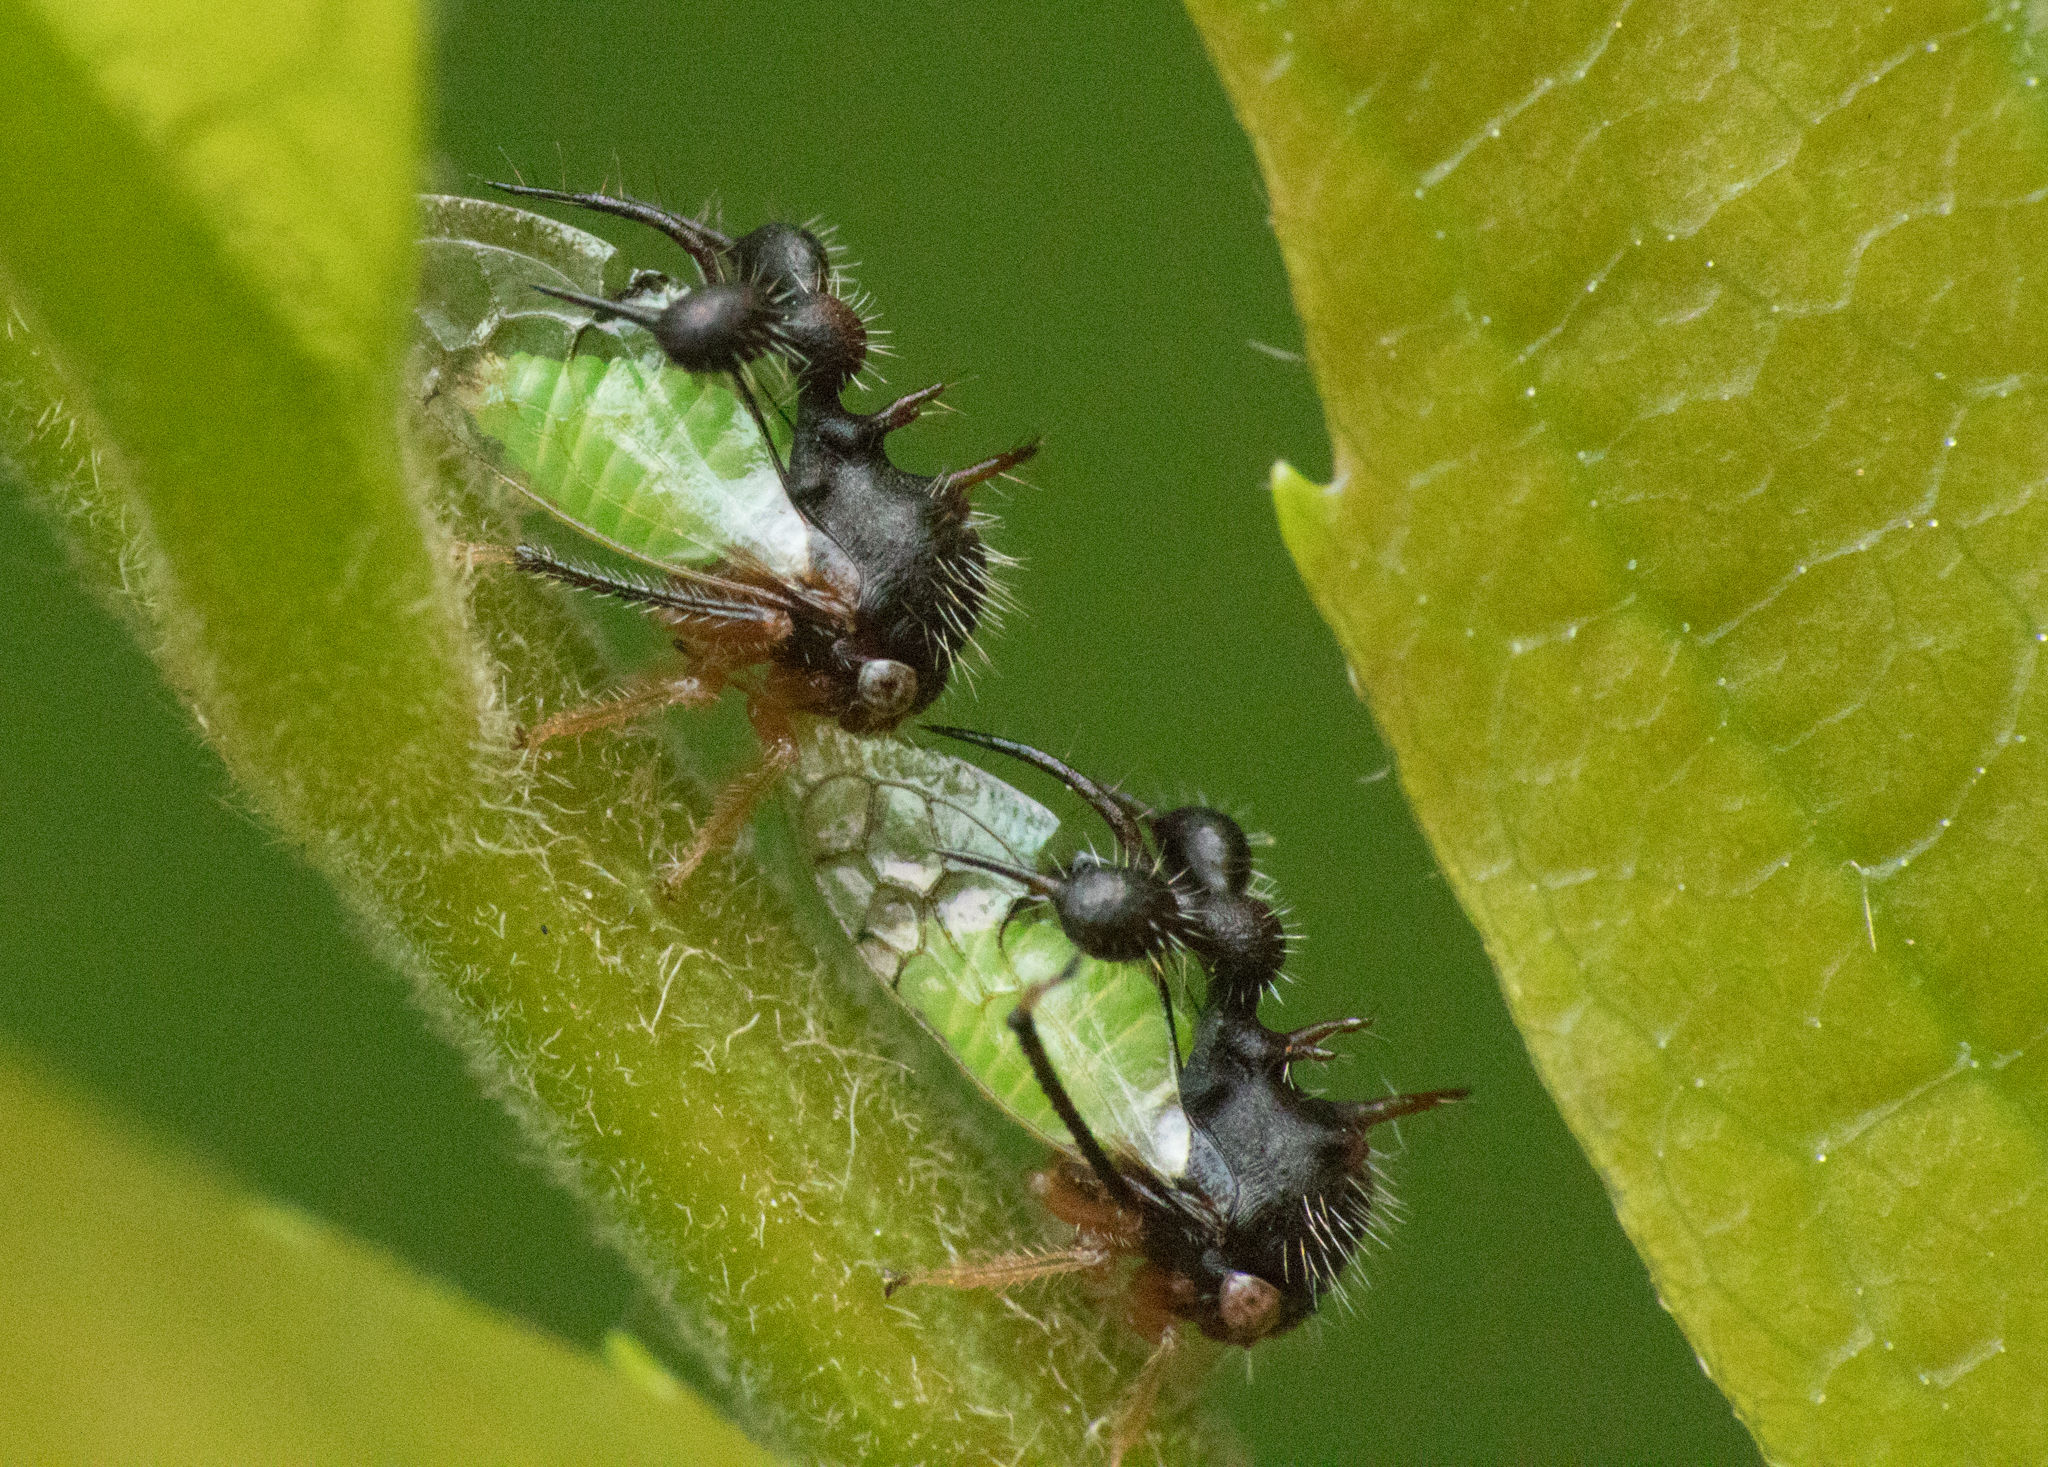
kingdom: Animalia
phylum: Arthropoda
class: Insecta
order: Hemiptera
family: Membracidae
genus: Cyphonia
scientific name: Cyphonia clavata
